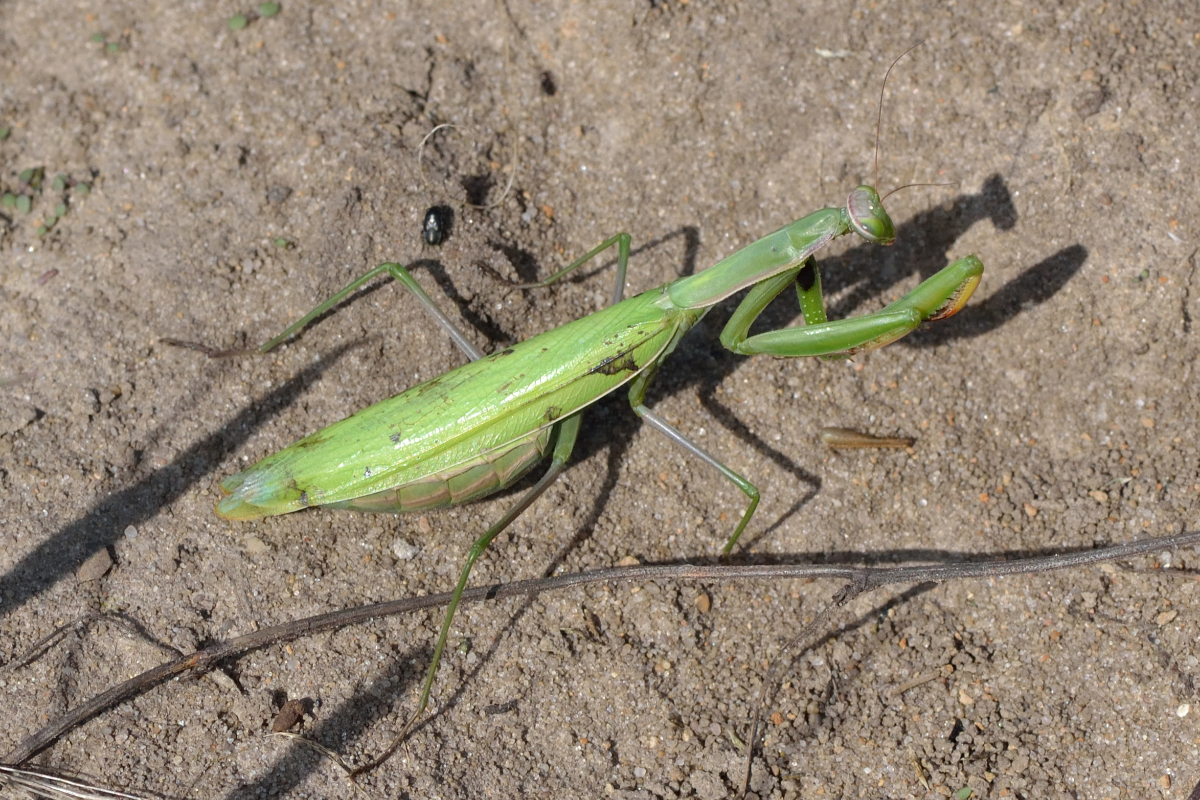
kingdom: Animalia
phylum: Arthropoda
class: Insecta
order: Mantodea
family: Mantidae
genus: Mantis
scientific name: Mantis religiosa
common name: Praying mantis
